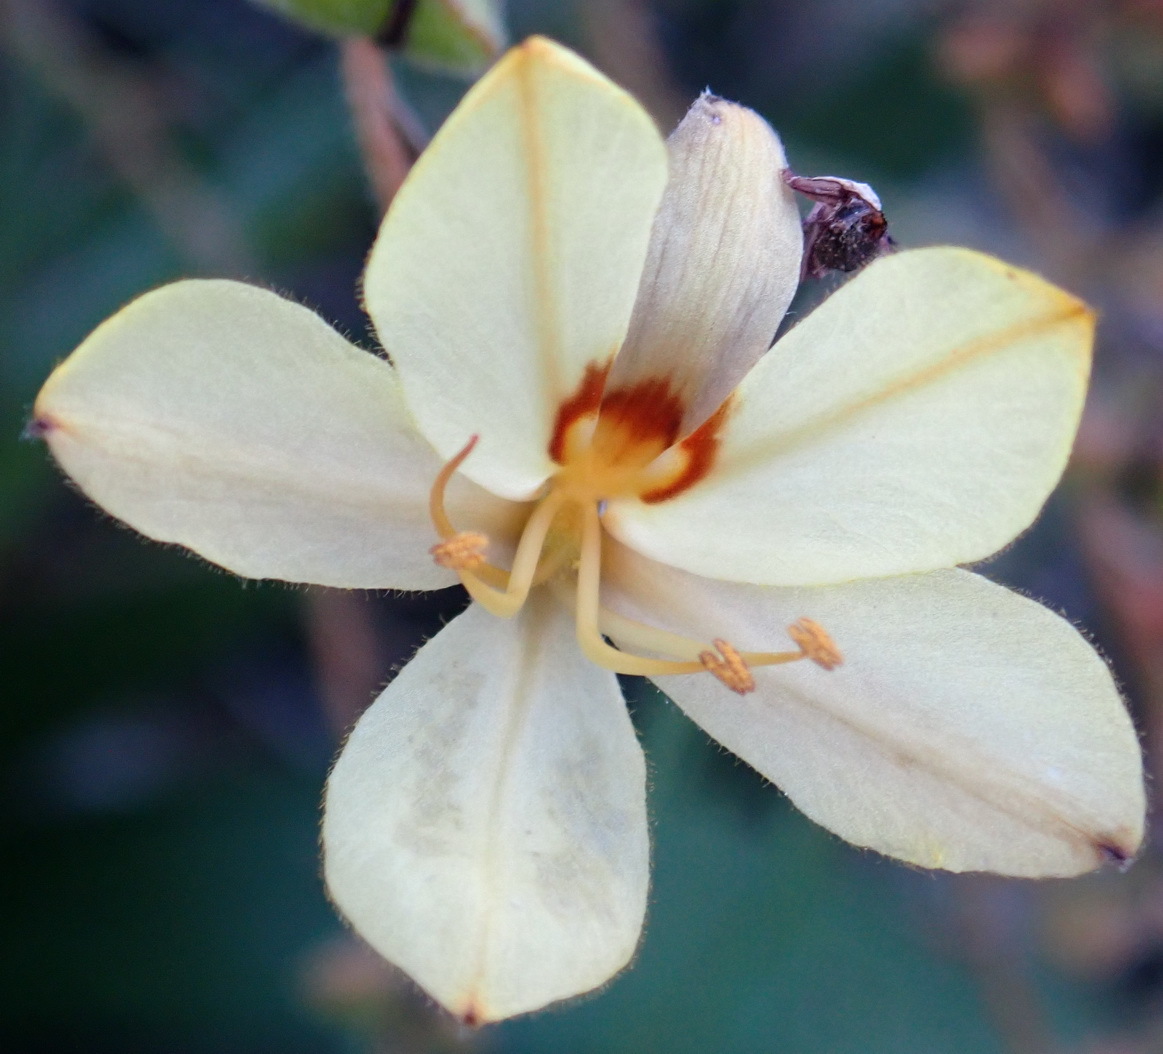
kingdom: Plantae
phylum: Tracheophyta
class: Liliopsida
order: Commelinales
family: Haemodoraceae
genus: Wachendorfia
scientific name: Wachendorfia paniculata
